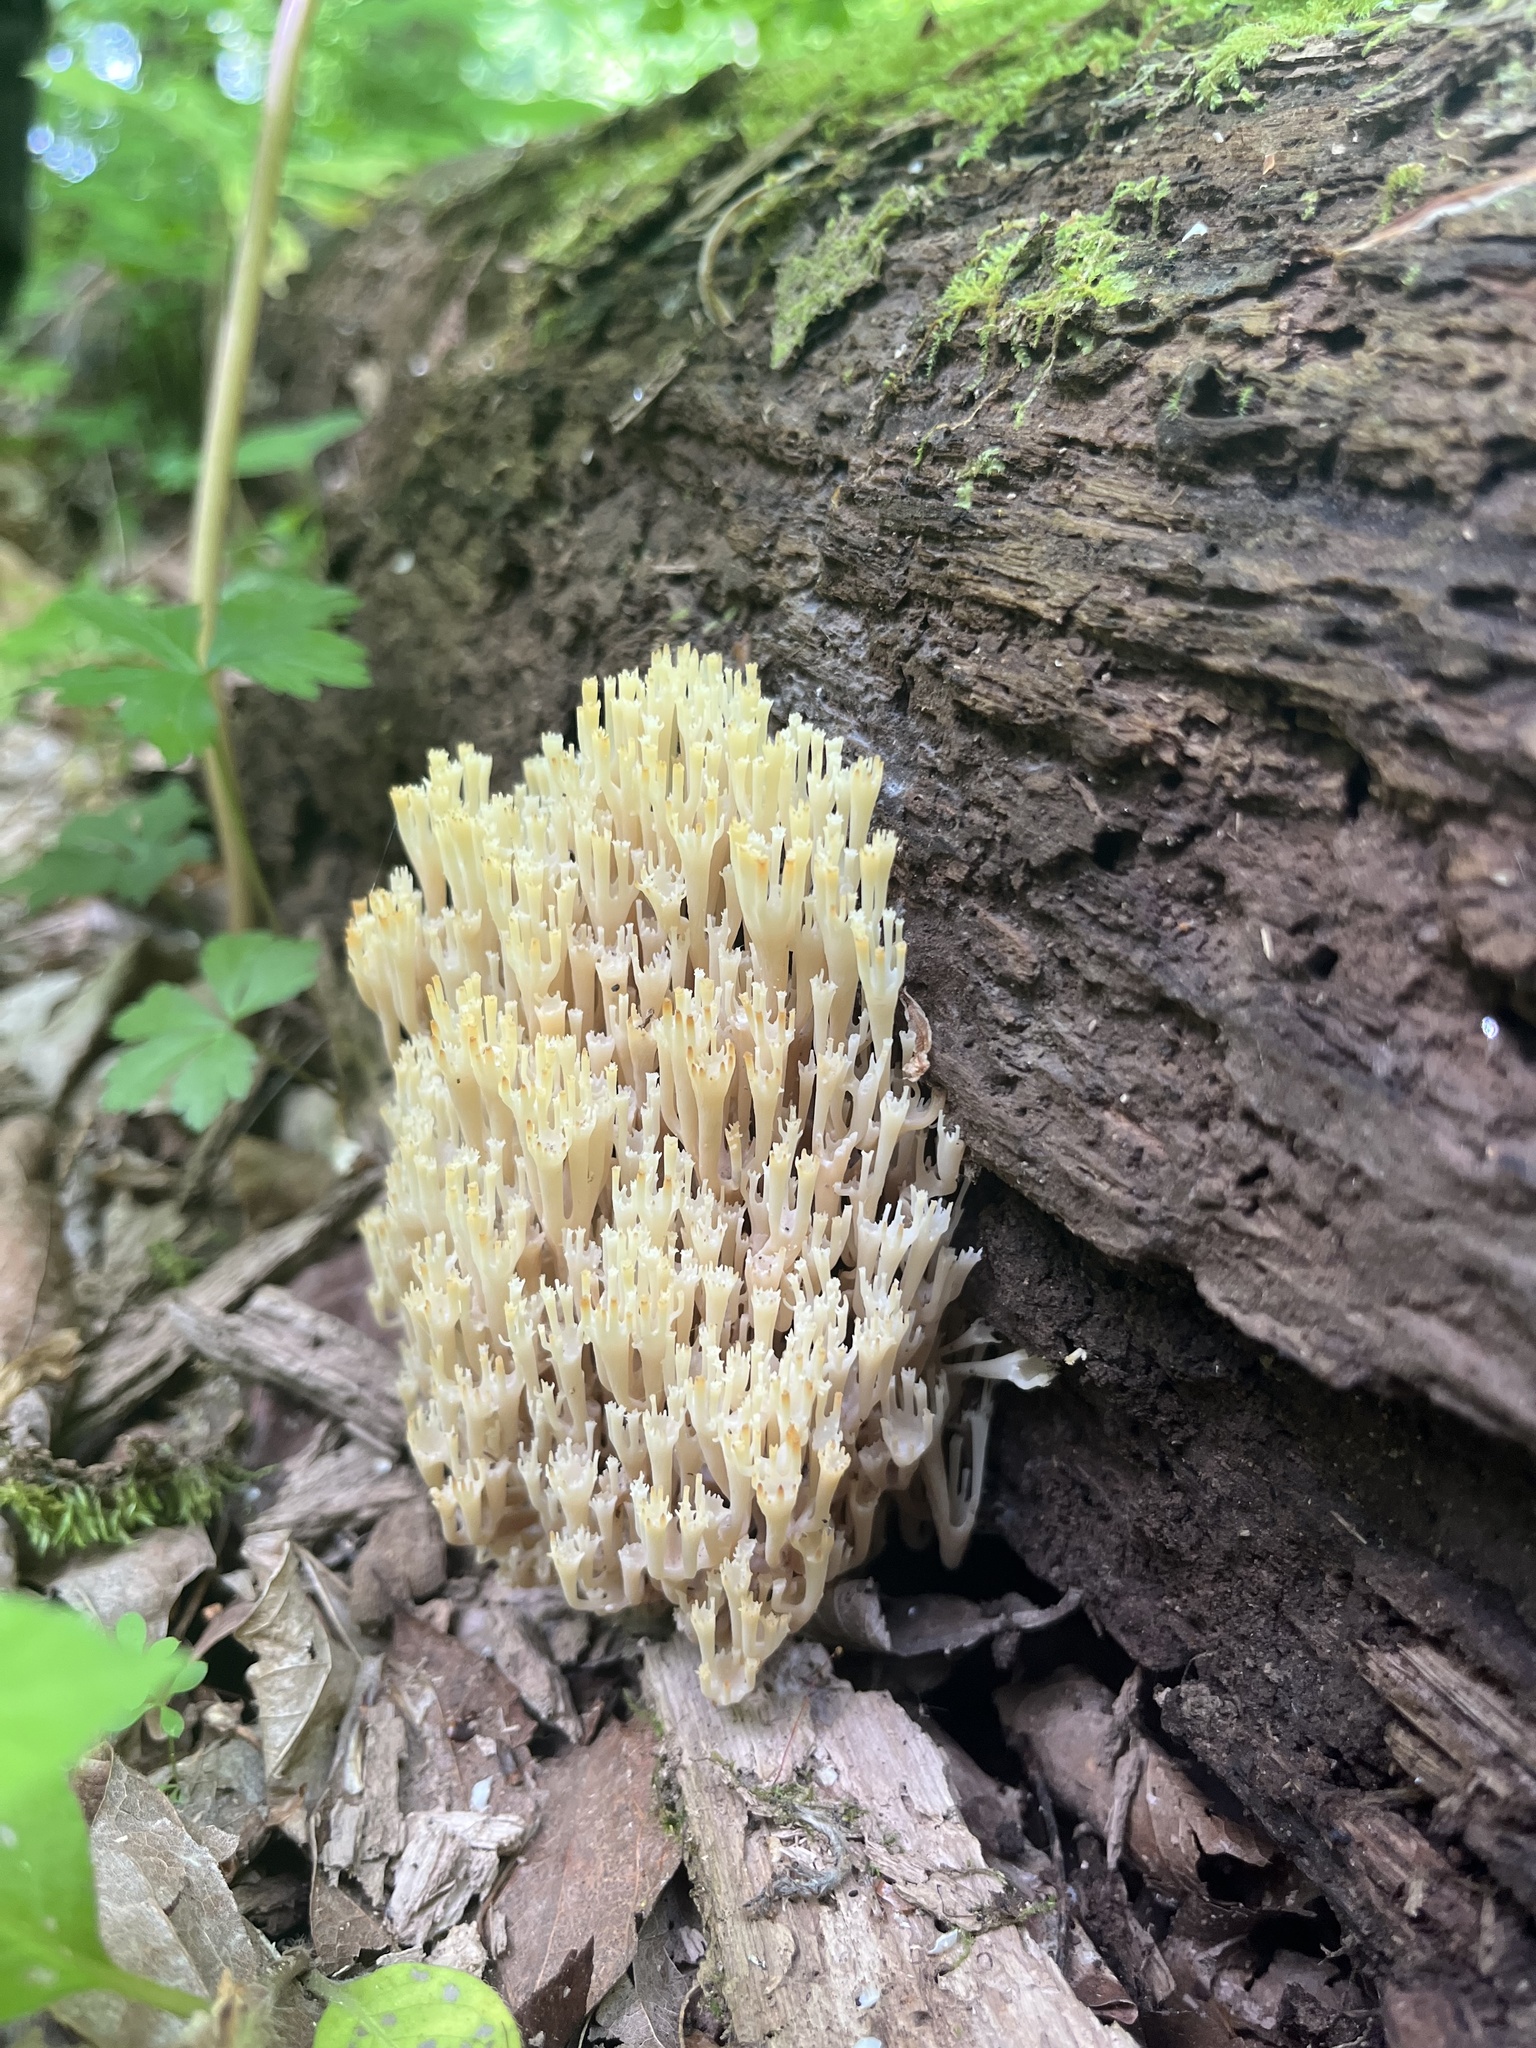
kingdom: Fungi
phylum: Basidiomycota
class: Agaricomycetes
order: Russulales
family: Auriscalpiaceae
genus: Artomyces
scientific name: Artomyces pyxidatus
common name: Crown-tipped coral fungus
